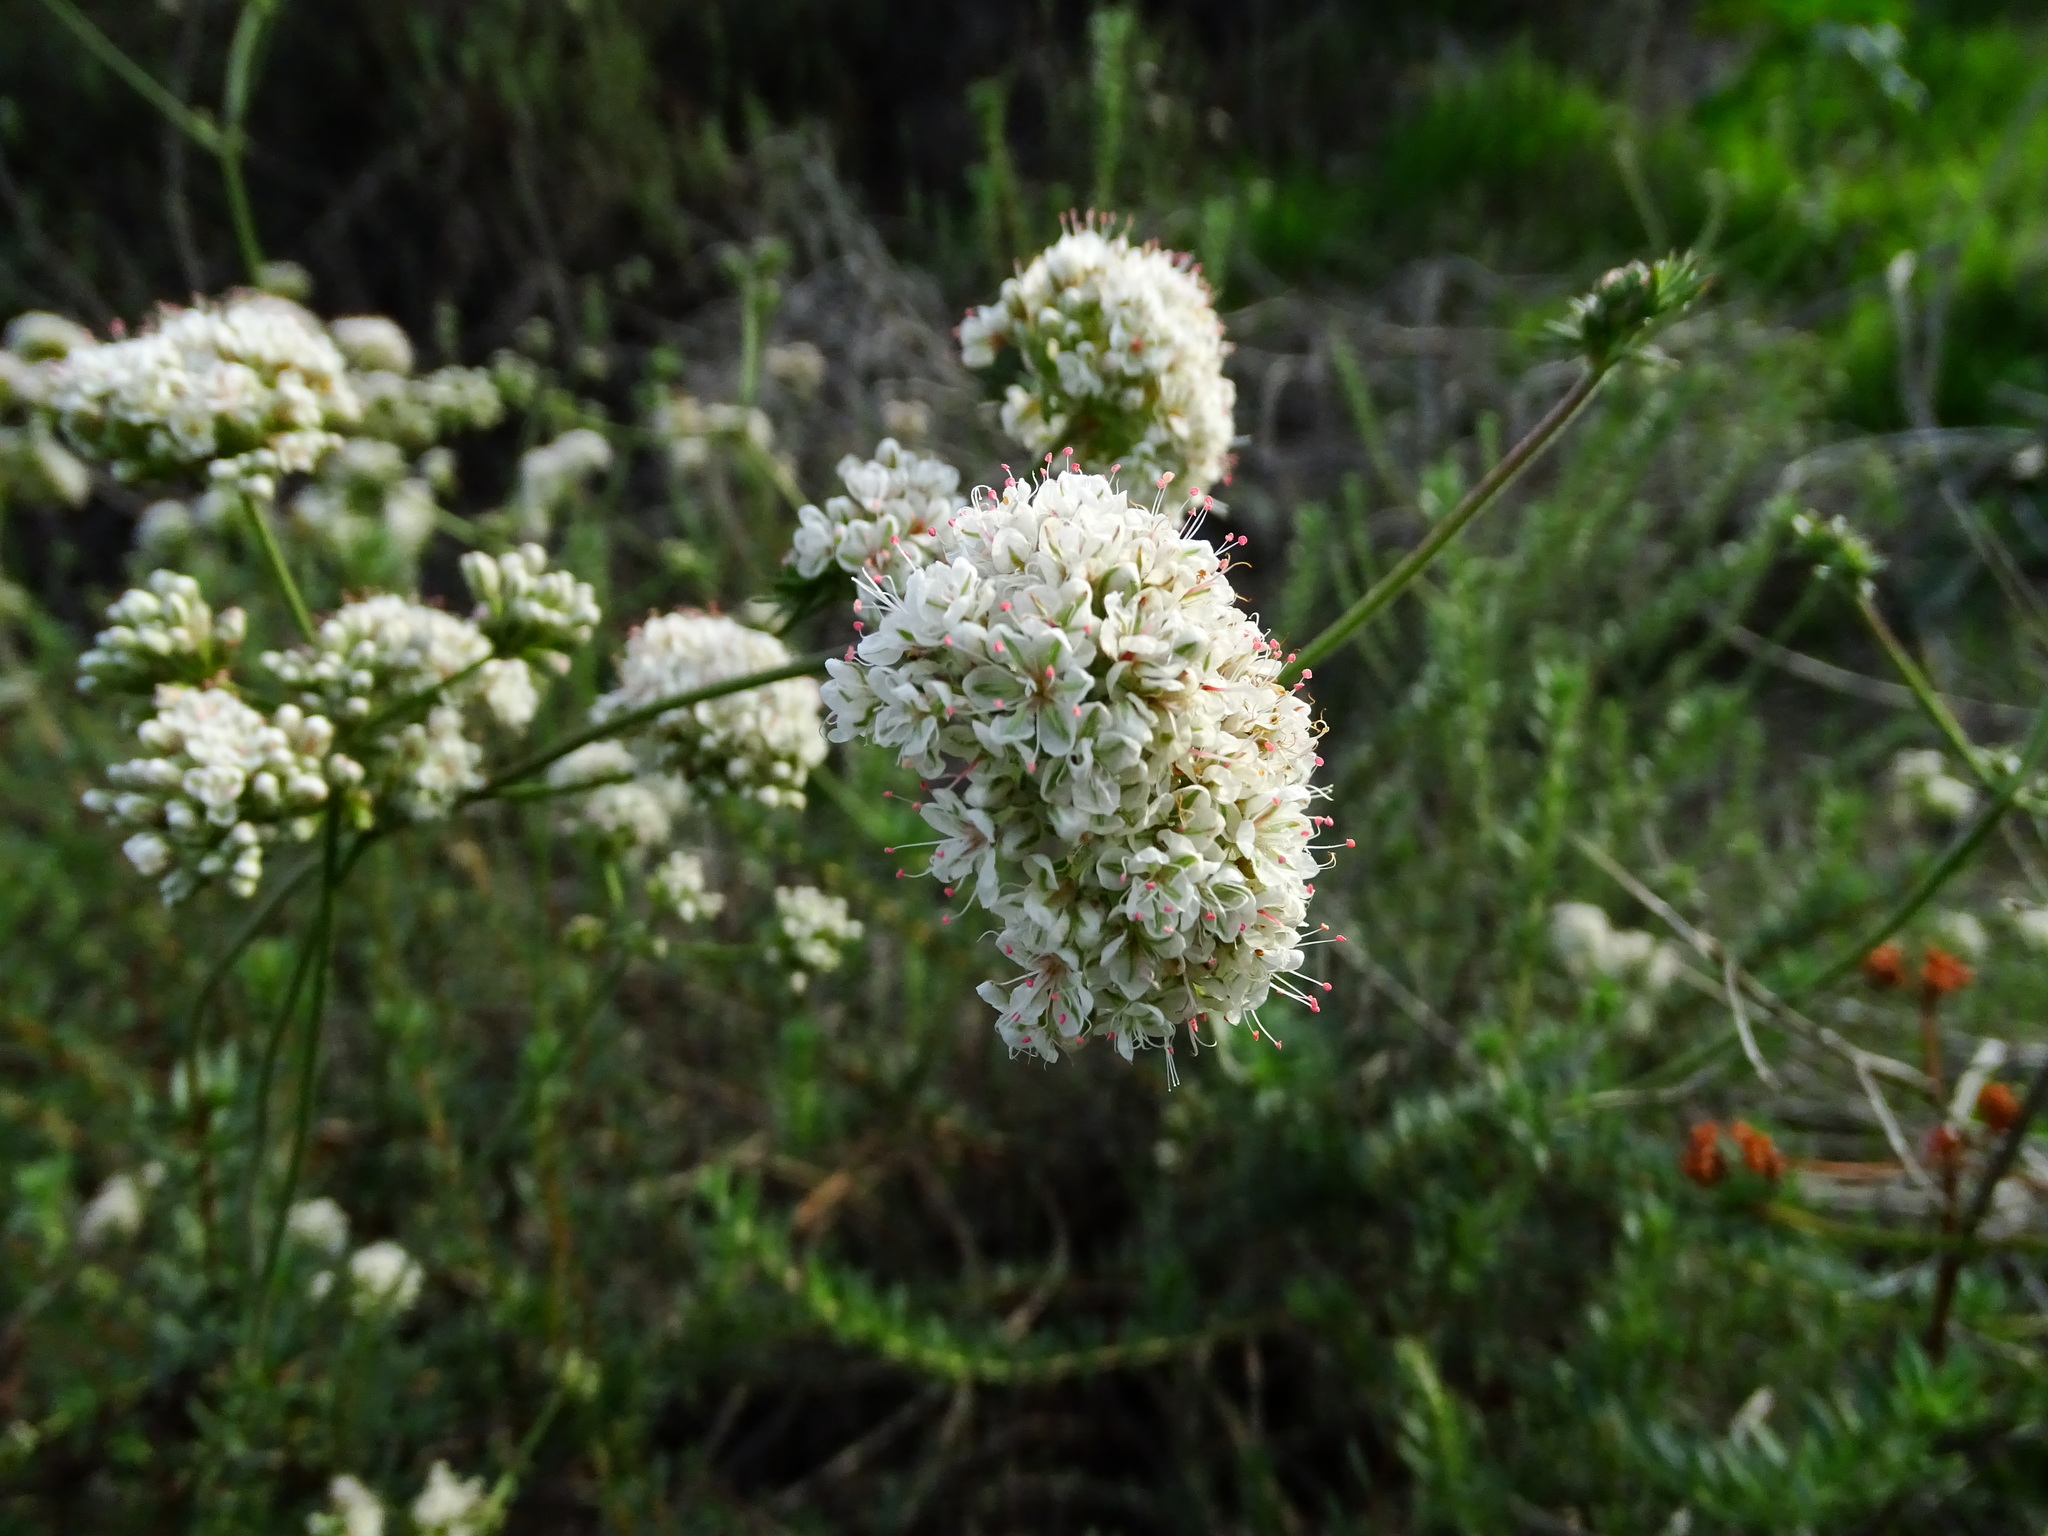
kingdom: Plantae
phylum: Tracheophyta
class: Magnoliopsida
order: Caryophyllales
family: Polygonaceae
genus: Eriogonum
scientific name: Eriogonum fasciculatum
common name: California wild buckwheat
